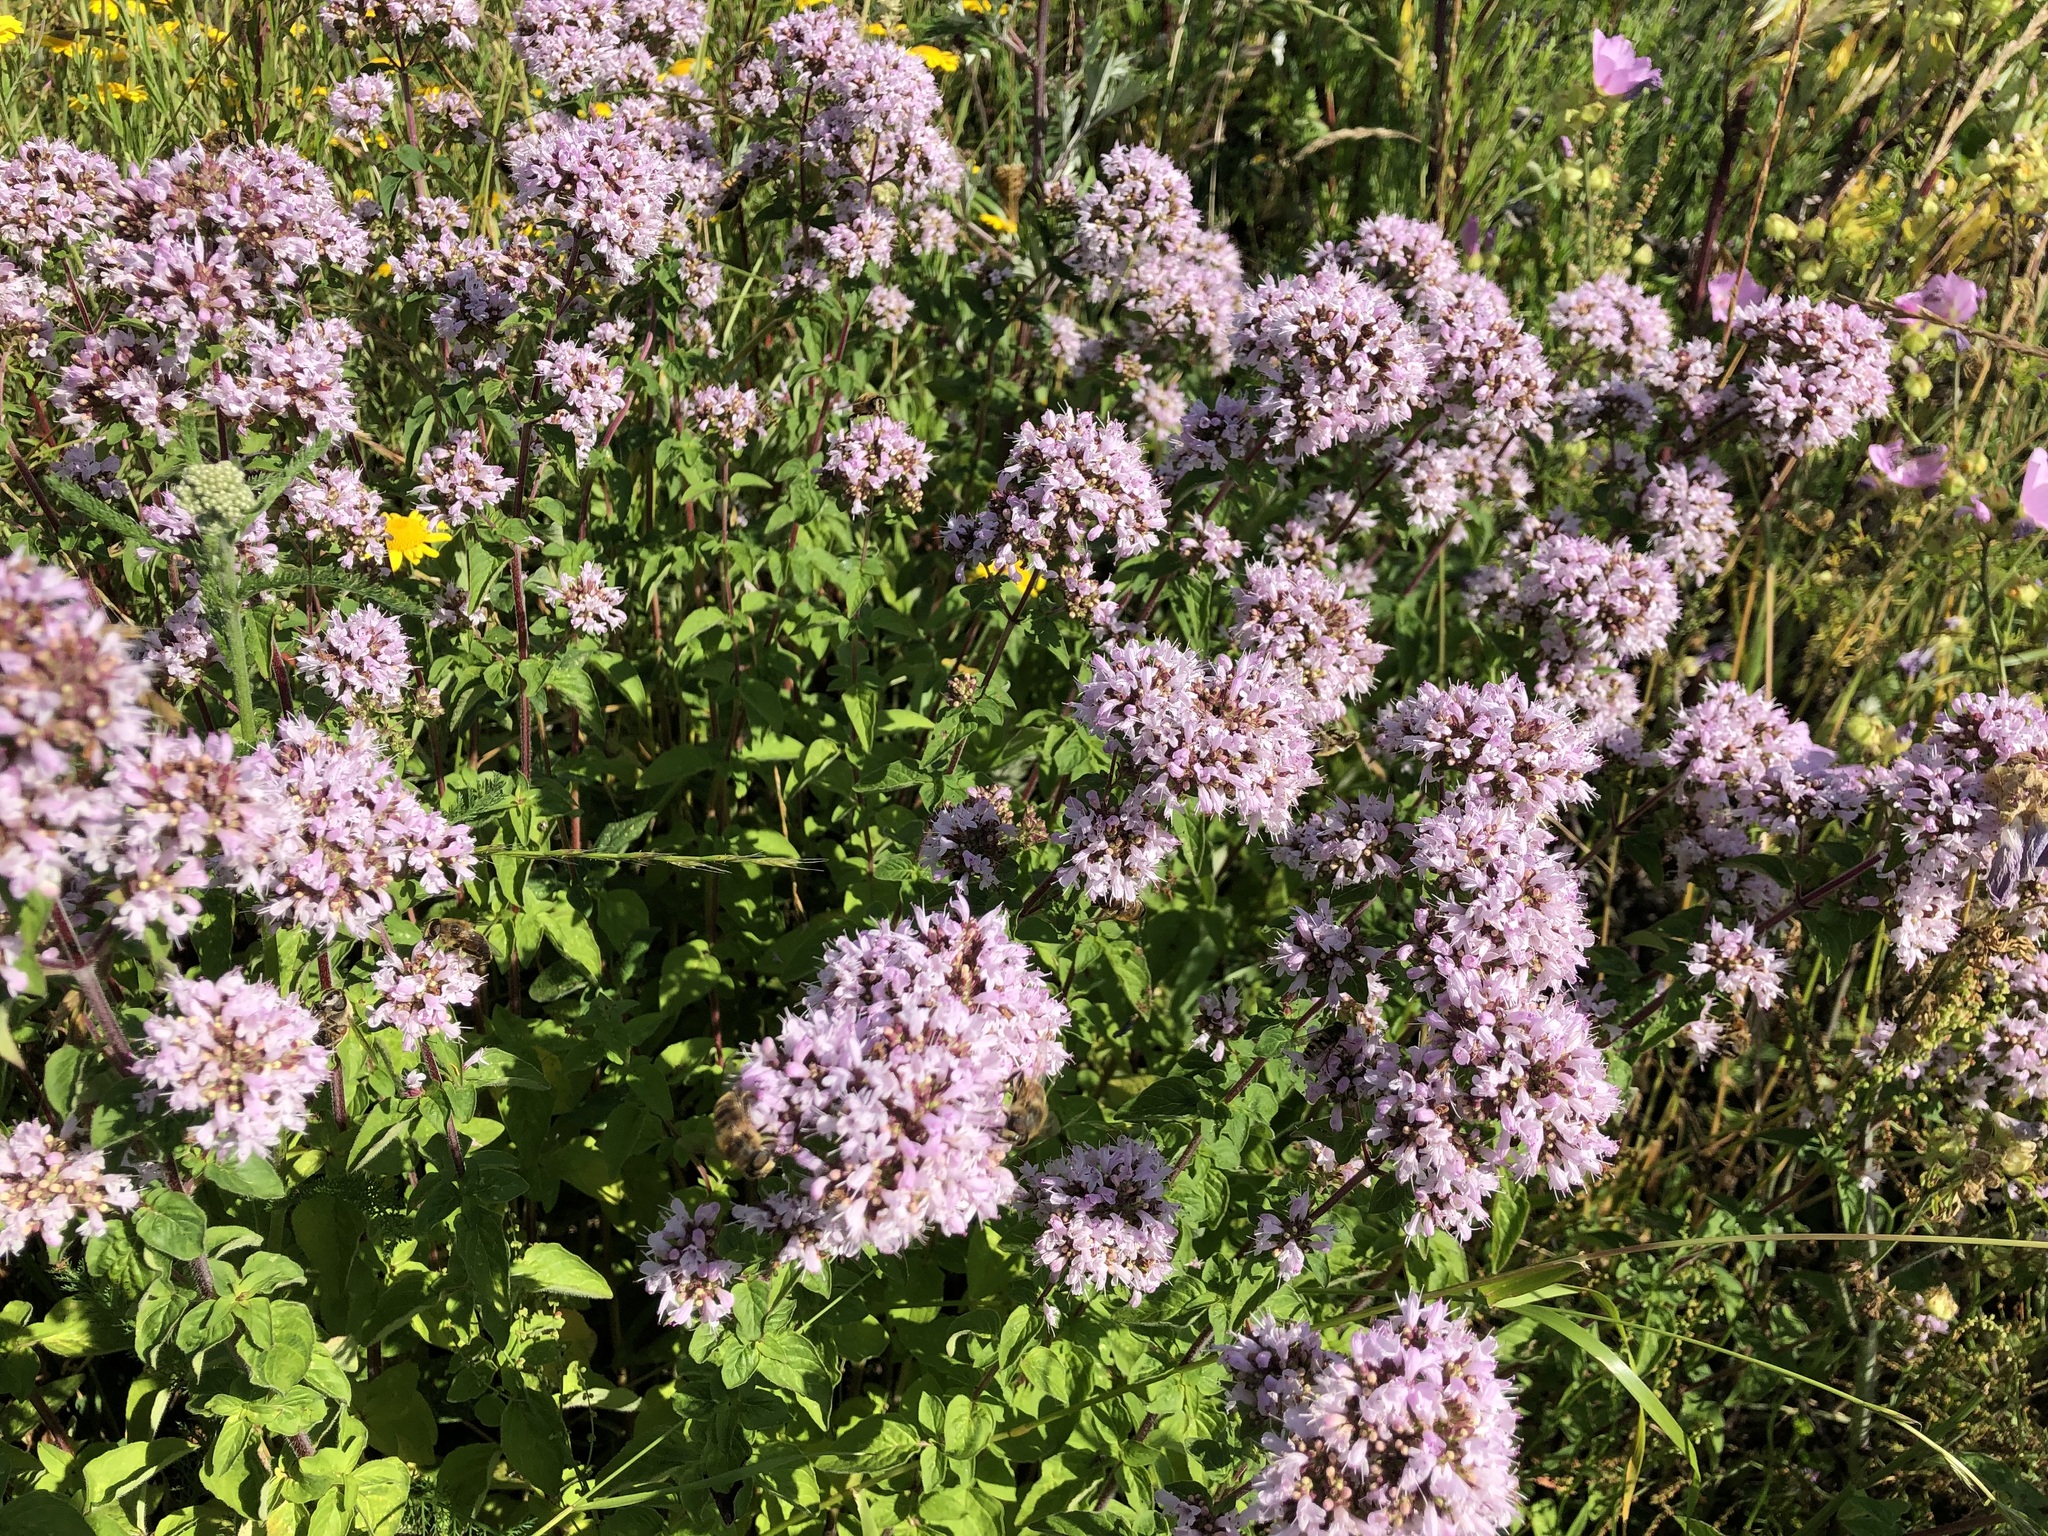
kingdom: Plantae
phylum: Tracheophyta
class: Magnoliopsida
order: Lamiales
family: Lamiaceae
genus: Origanum
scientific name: Origanum vulgare
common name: Wild marjoram
